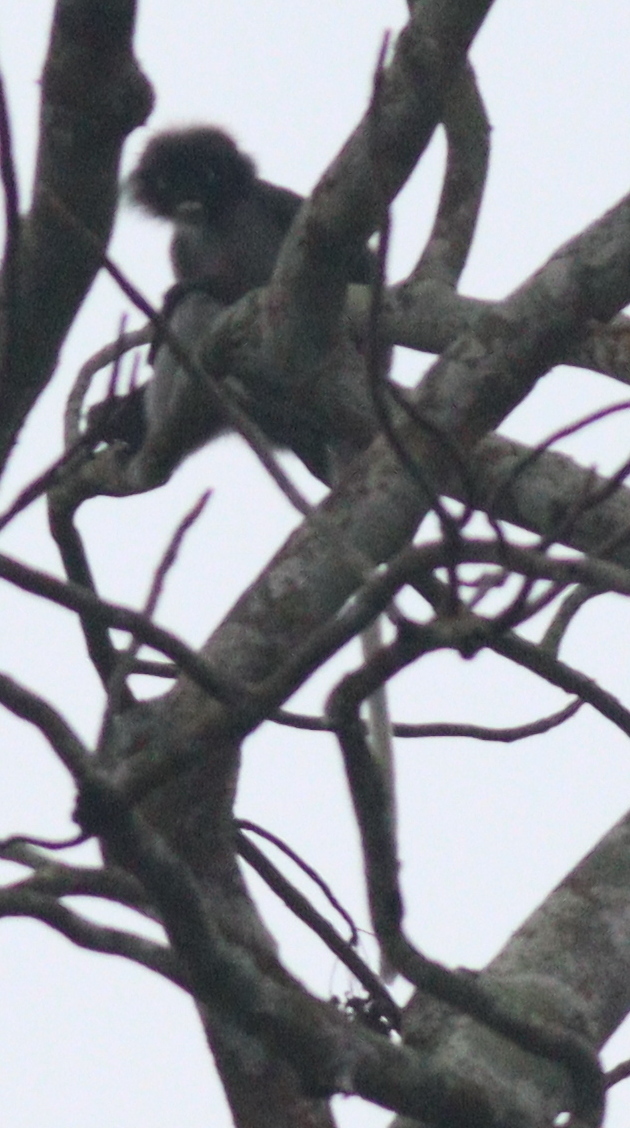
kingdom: Animalia
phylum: Chordata
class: Mammalia
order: Primates
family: Cercopithecidae
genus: Trachypithecus
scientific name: Trachypithecus obscurus
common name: Dusky leaf-monkey
